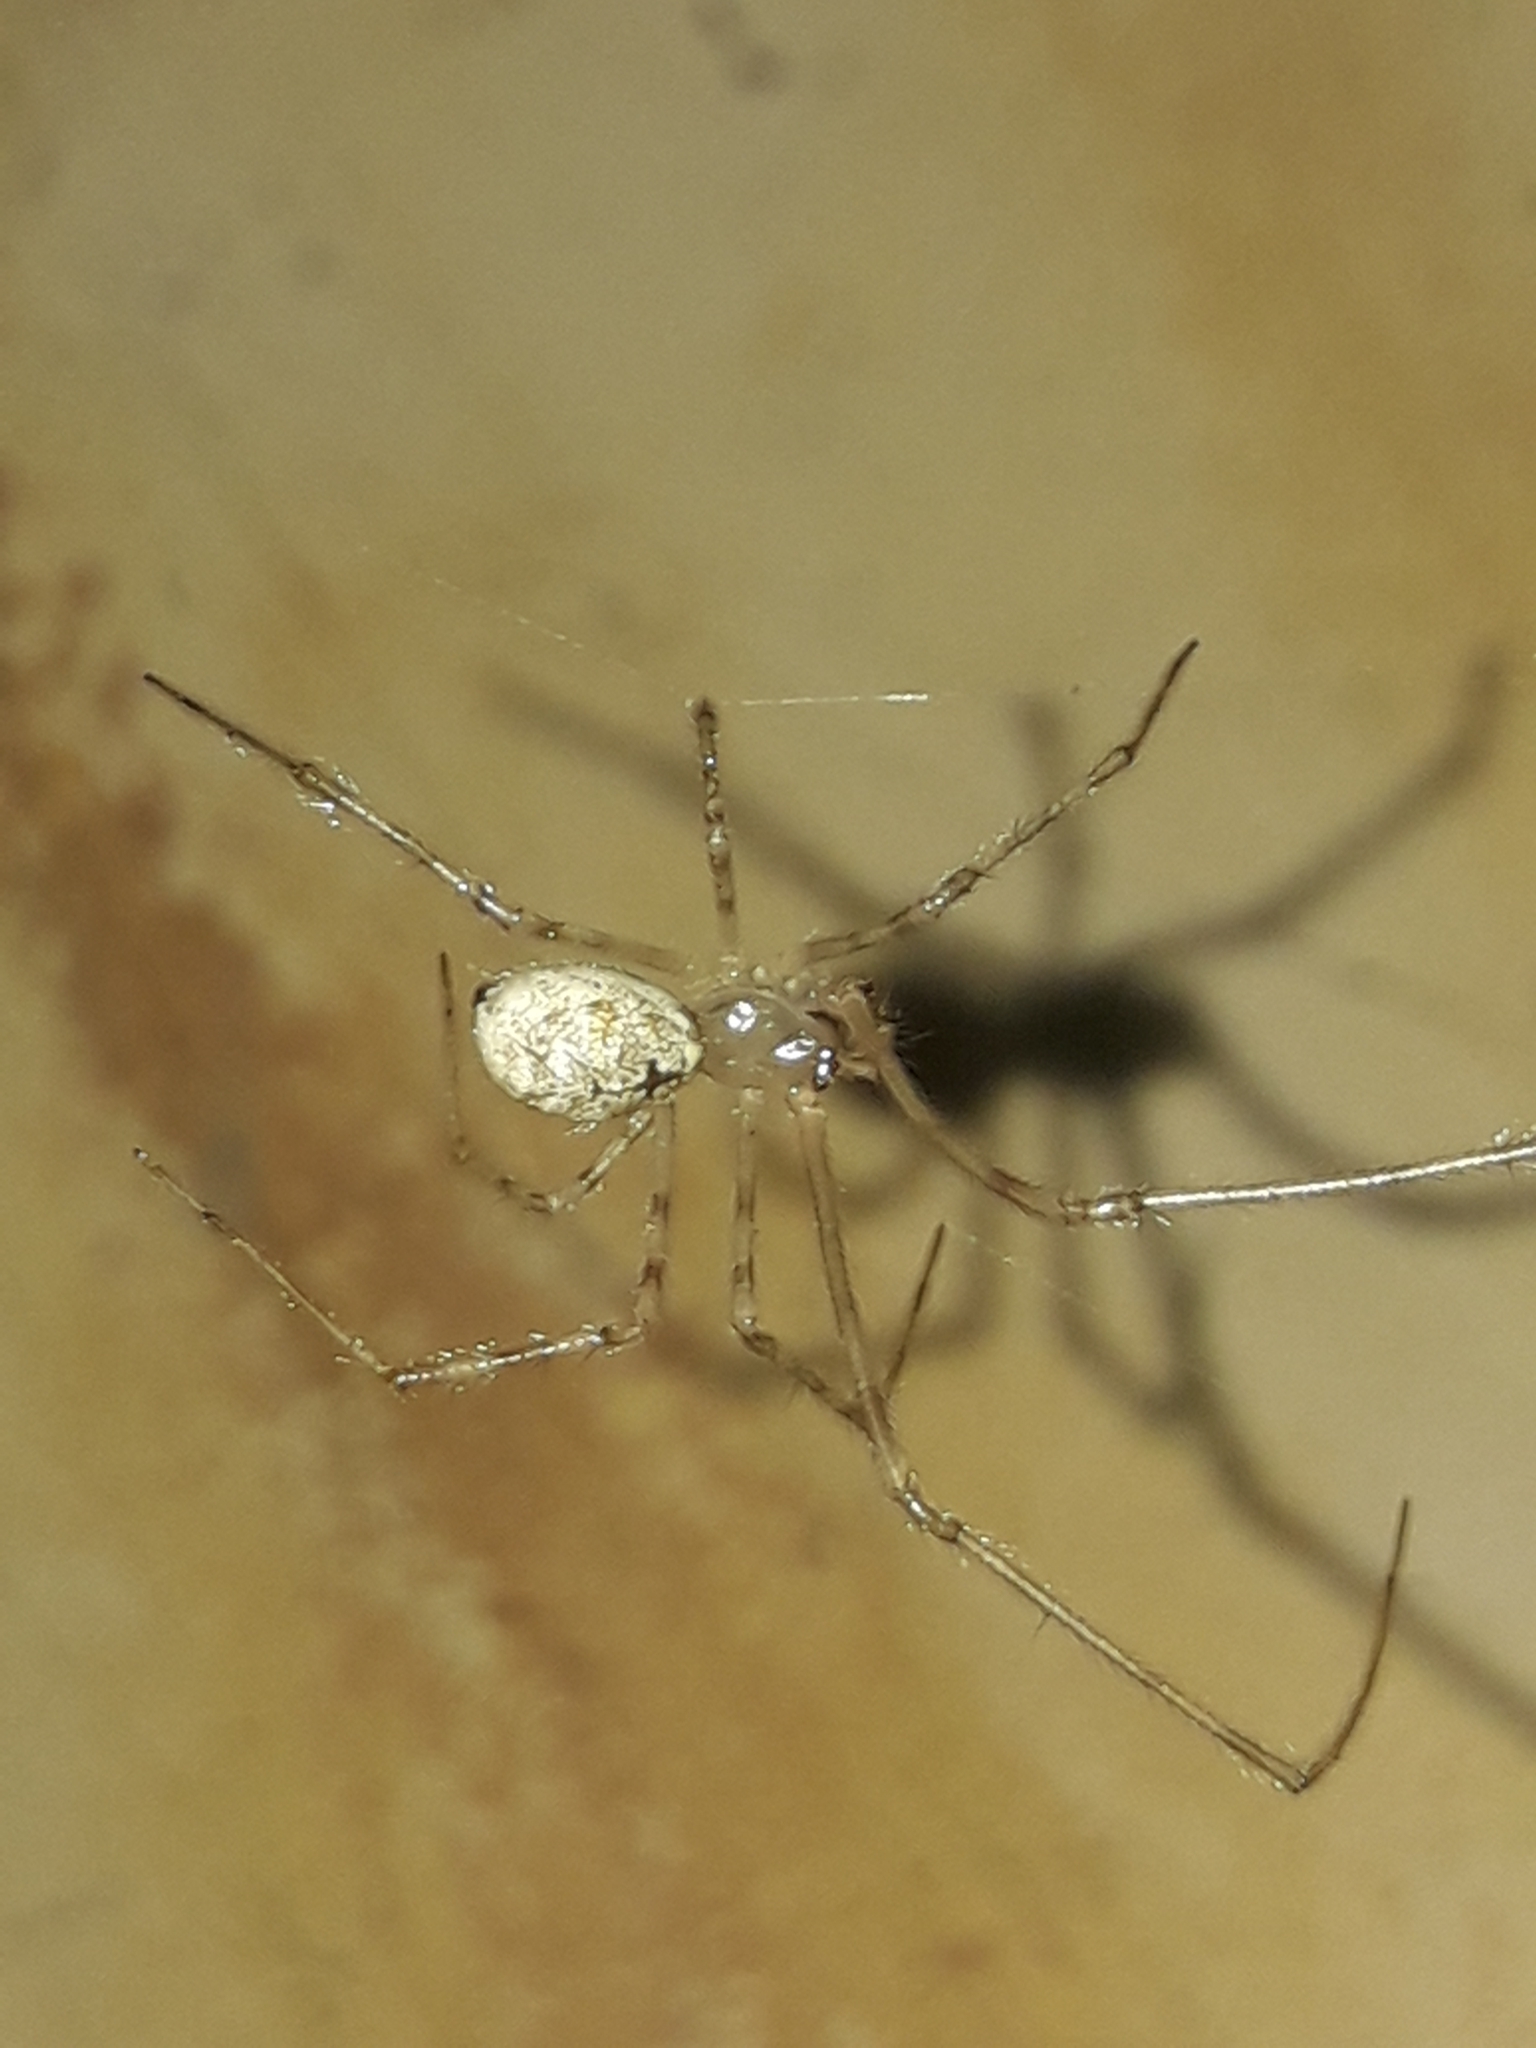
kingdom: Animalia
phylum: Arthropoda
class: Arachnida
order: Araneae
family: Theridiidae
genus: Cryptachaea
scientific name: Cryptachaea gigantipes
